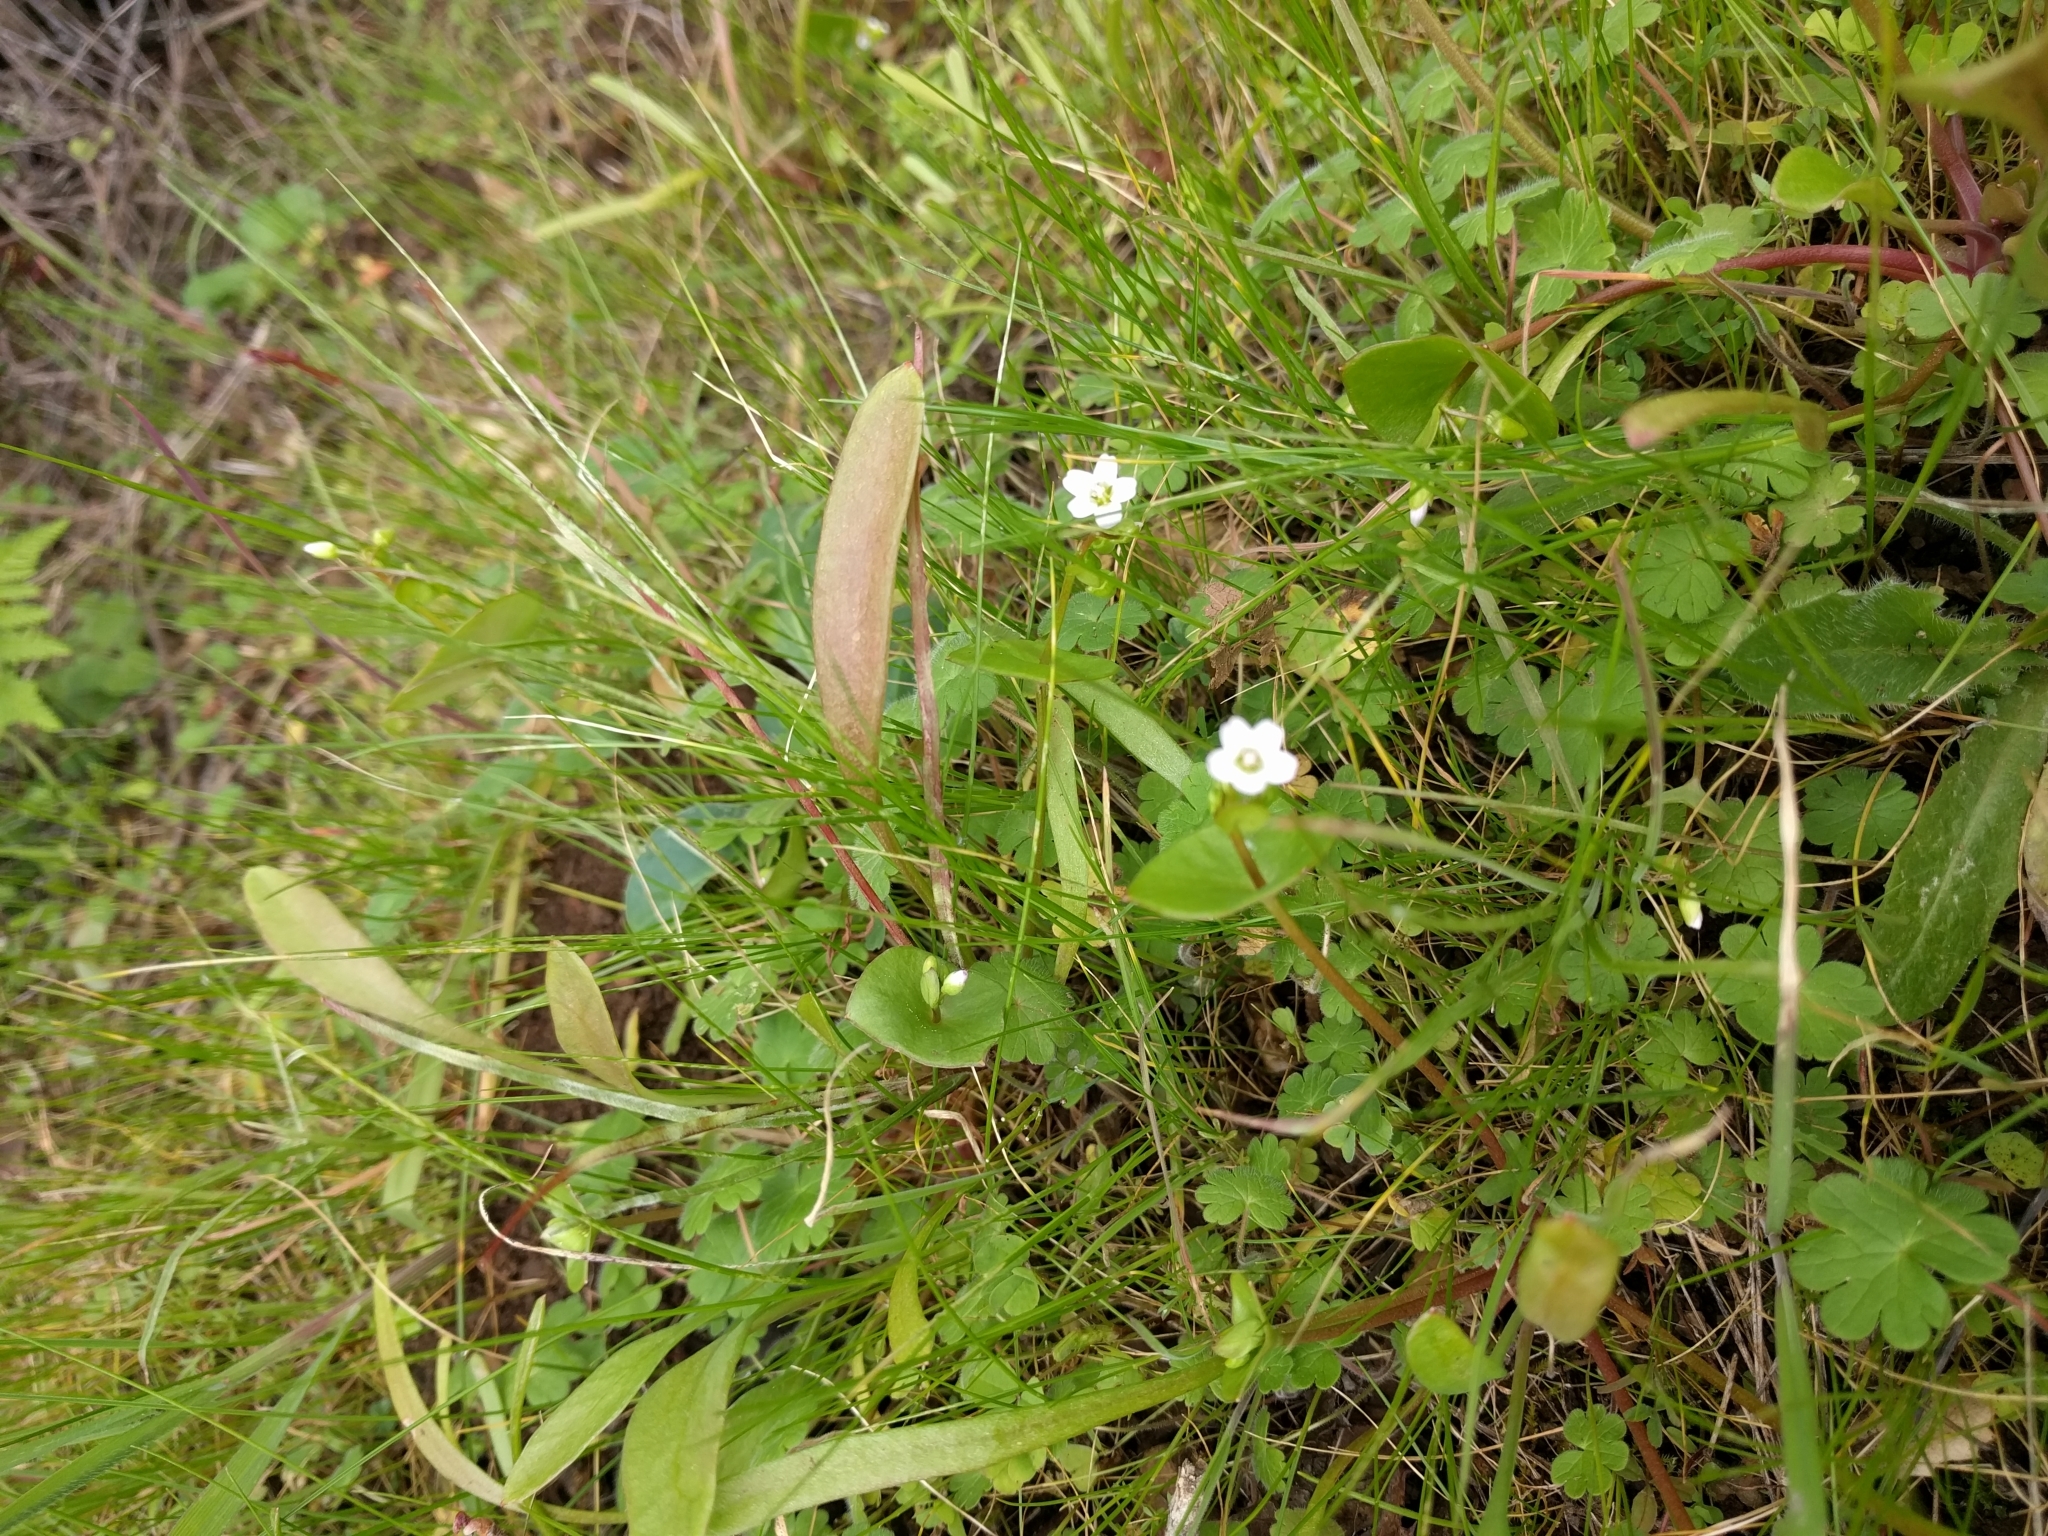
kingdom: Plantae
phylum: Tracheophyta
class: Magnoliopsida
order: Caryophyllales
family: Montiaceae
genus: Claytonia
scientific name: Claytonia perfoliata
